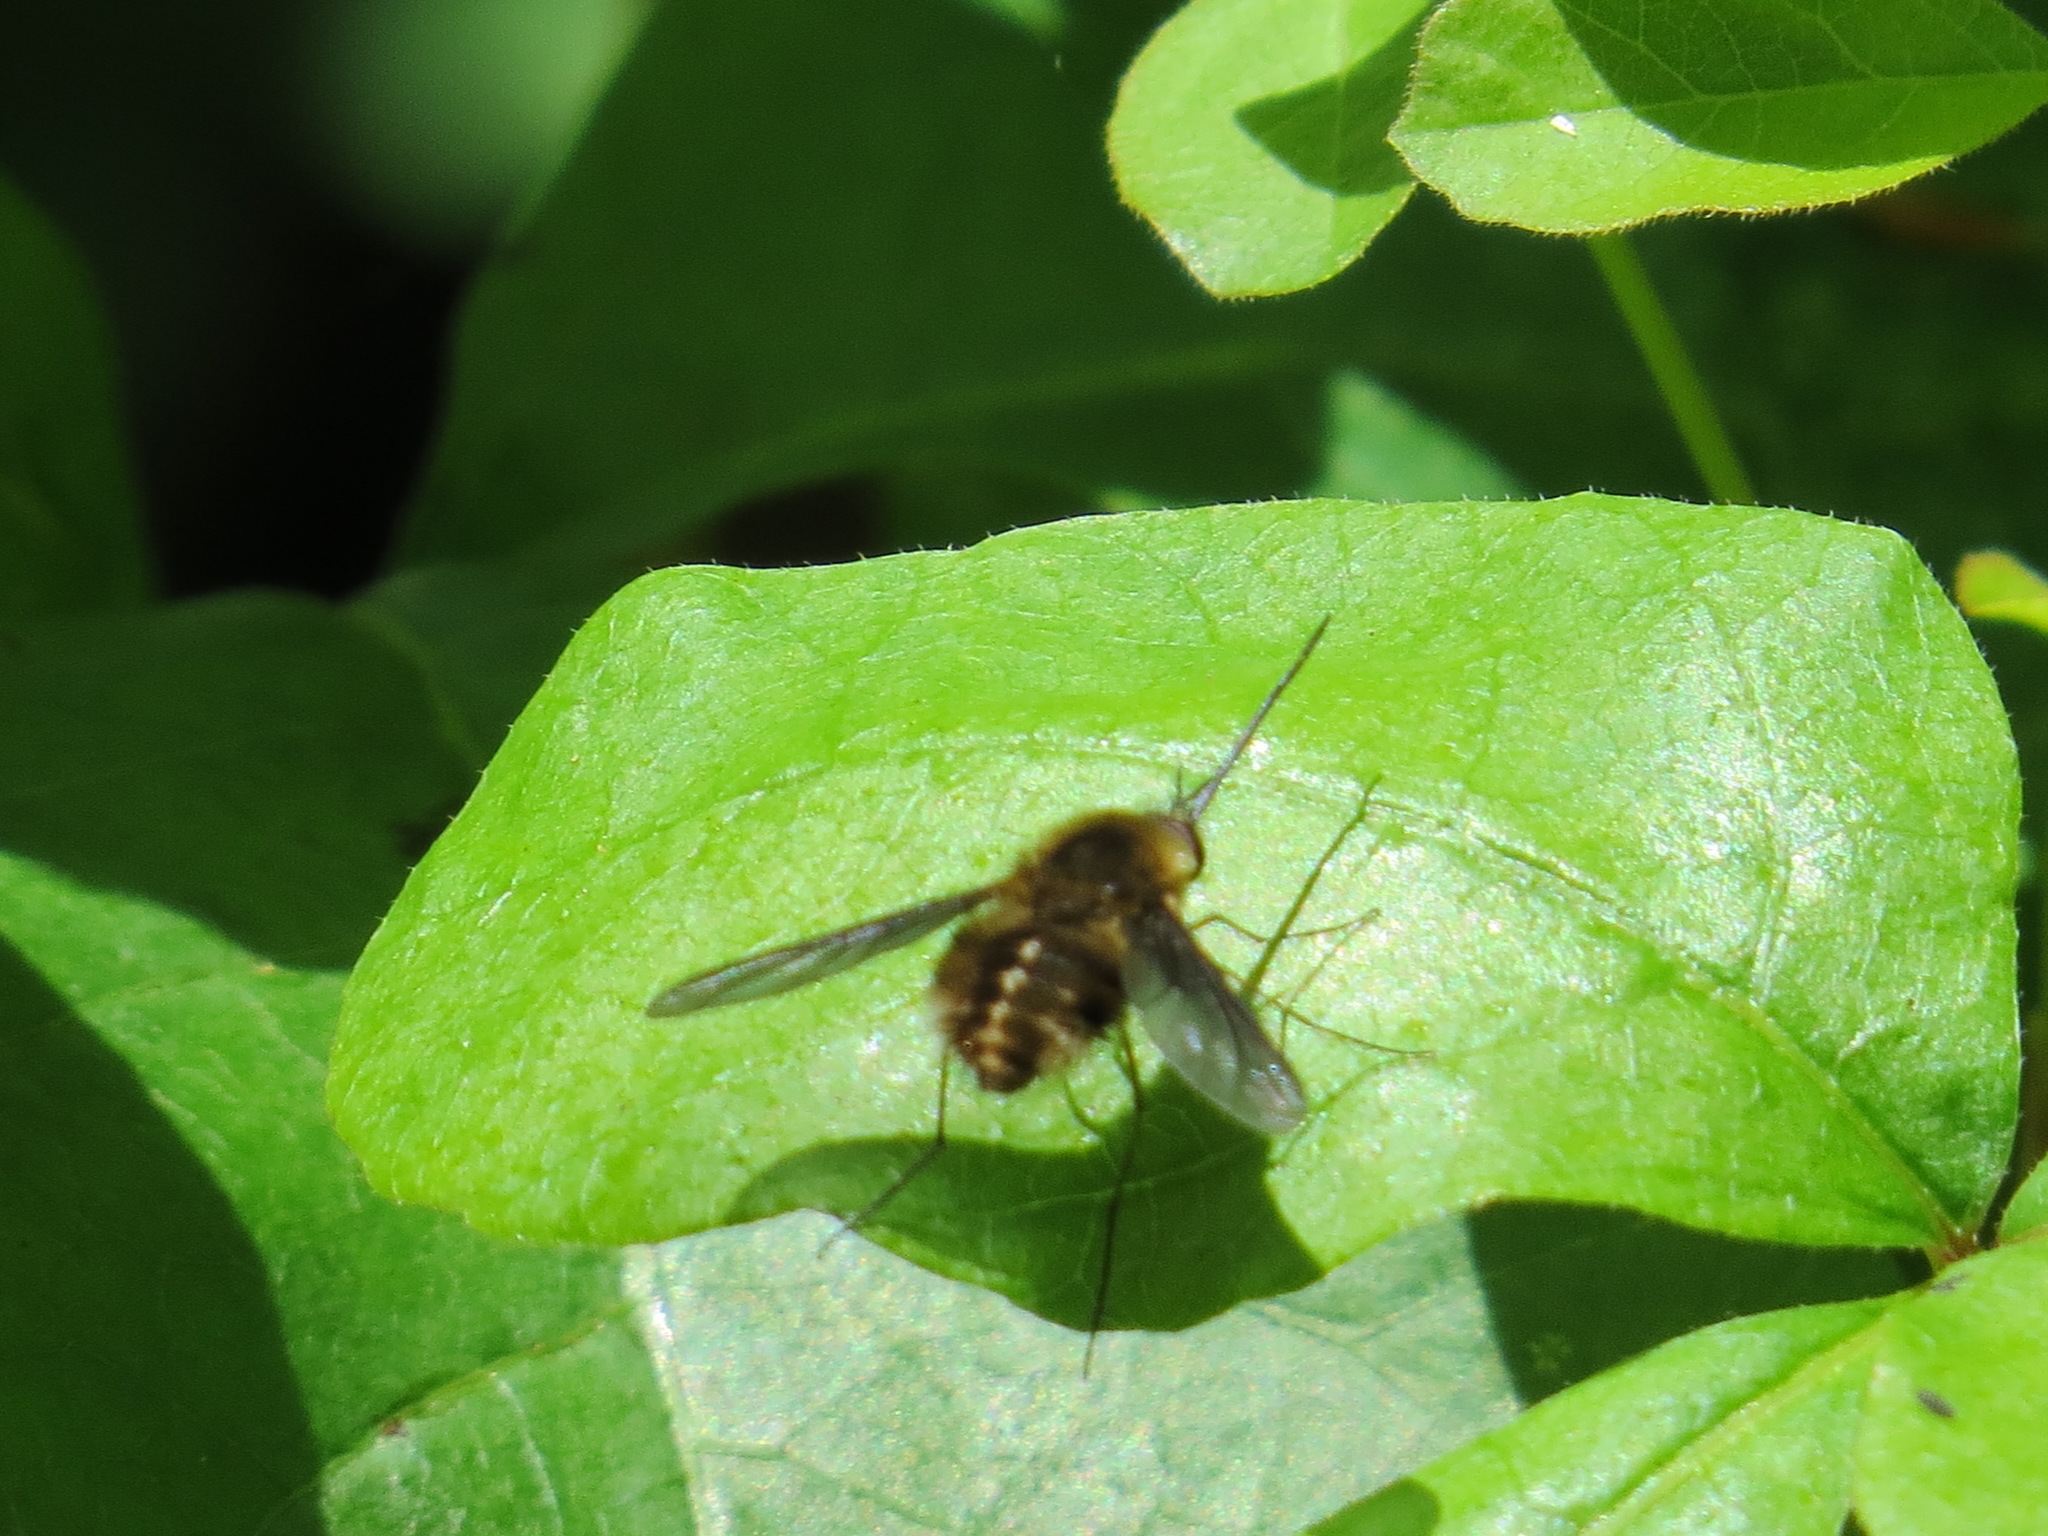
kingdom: Animalia
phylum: Arthropoda
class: Insecta
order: Diptera
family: Bombyliidae
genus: Bombylius
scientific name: Bombylius major
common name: Bee fly
